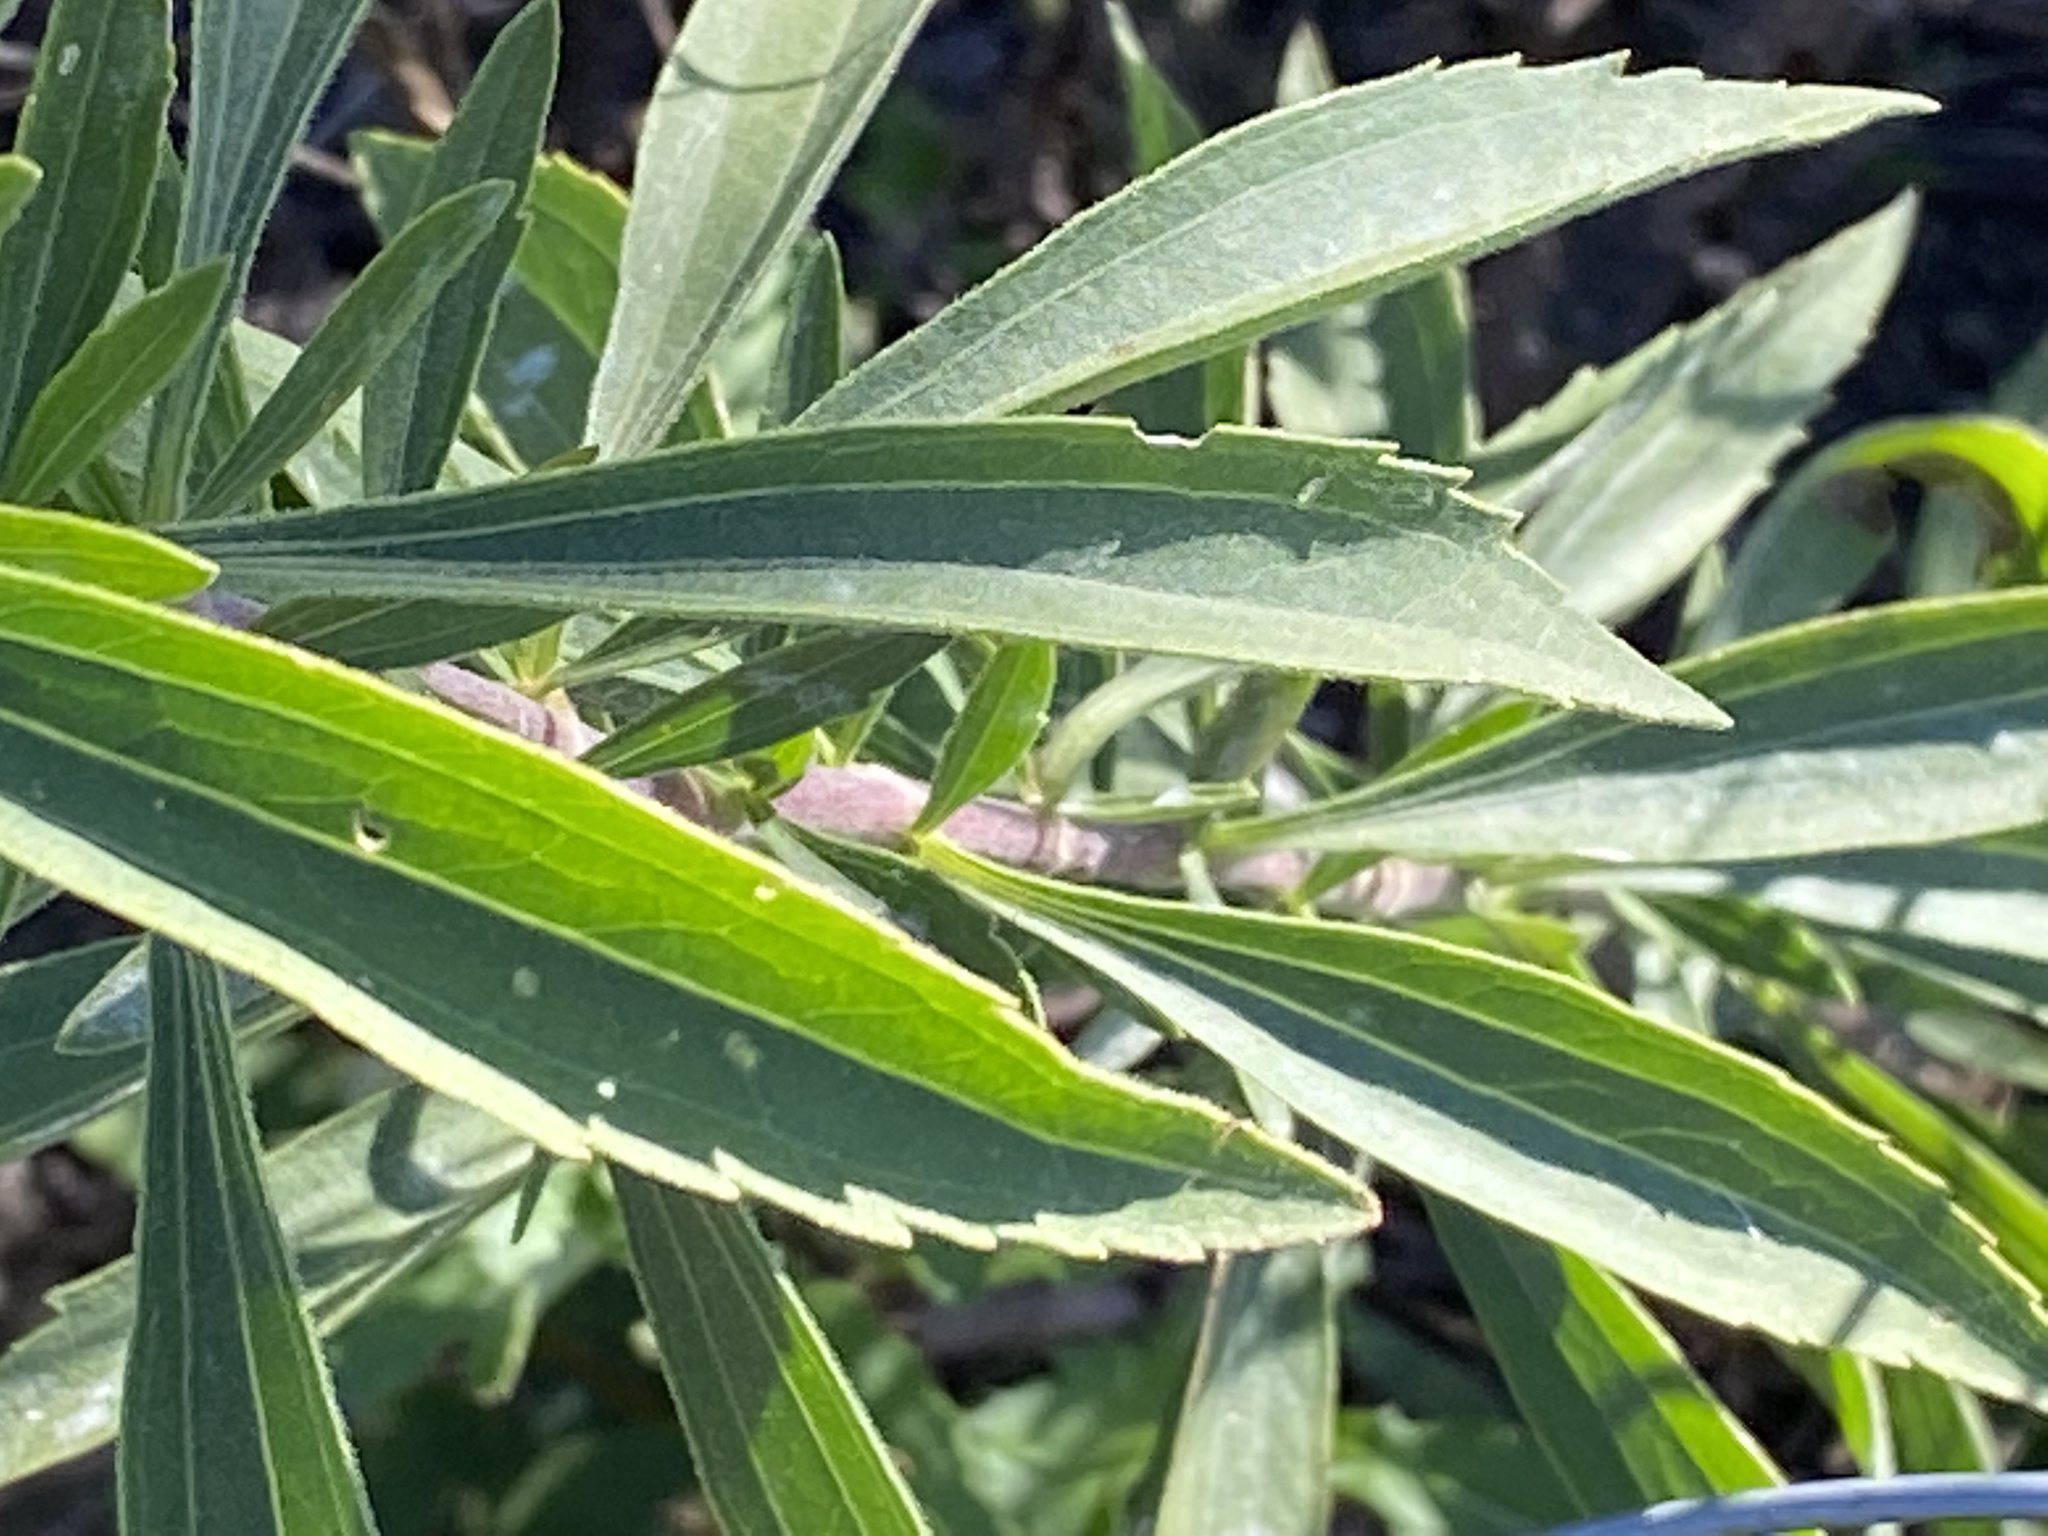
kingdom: Plantae
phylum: Tracheophyta
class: Magnoliopsida
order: Asterales
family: Asteraceae
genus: Eupatorium
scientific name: Eupatorium altissimum
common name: Tall thoroughwort
